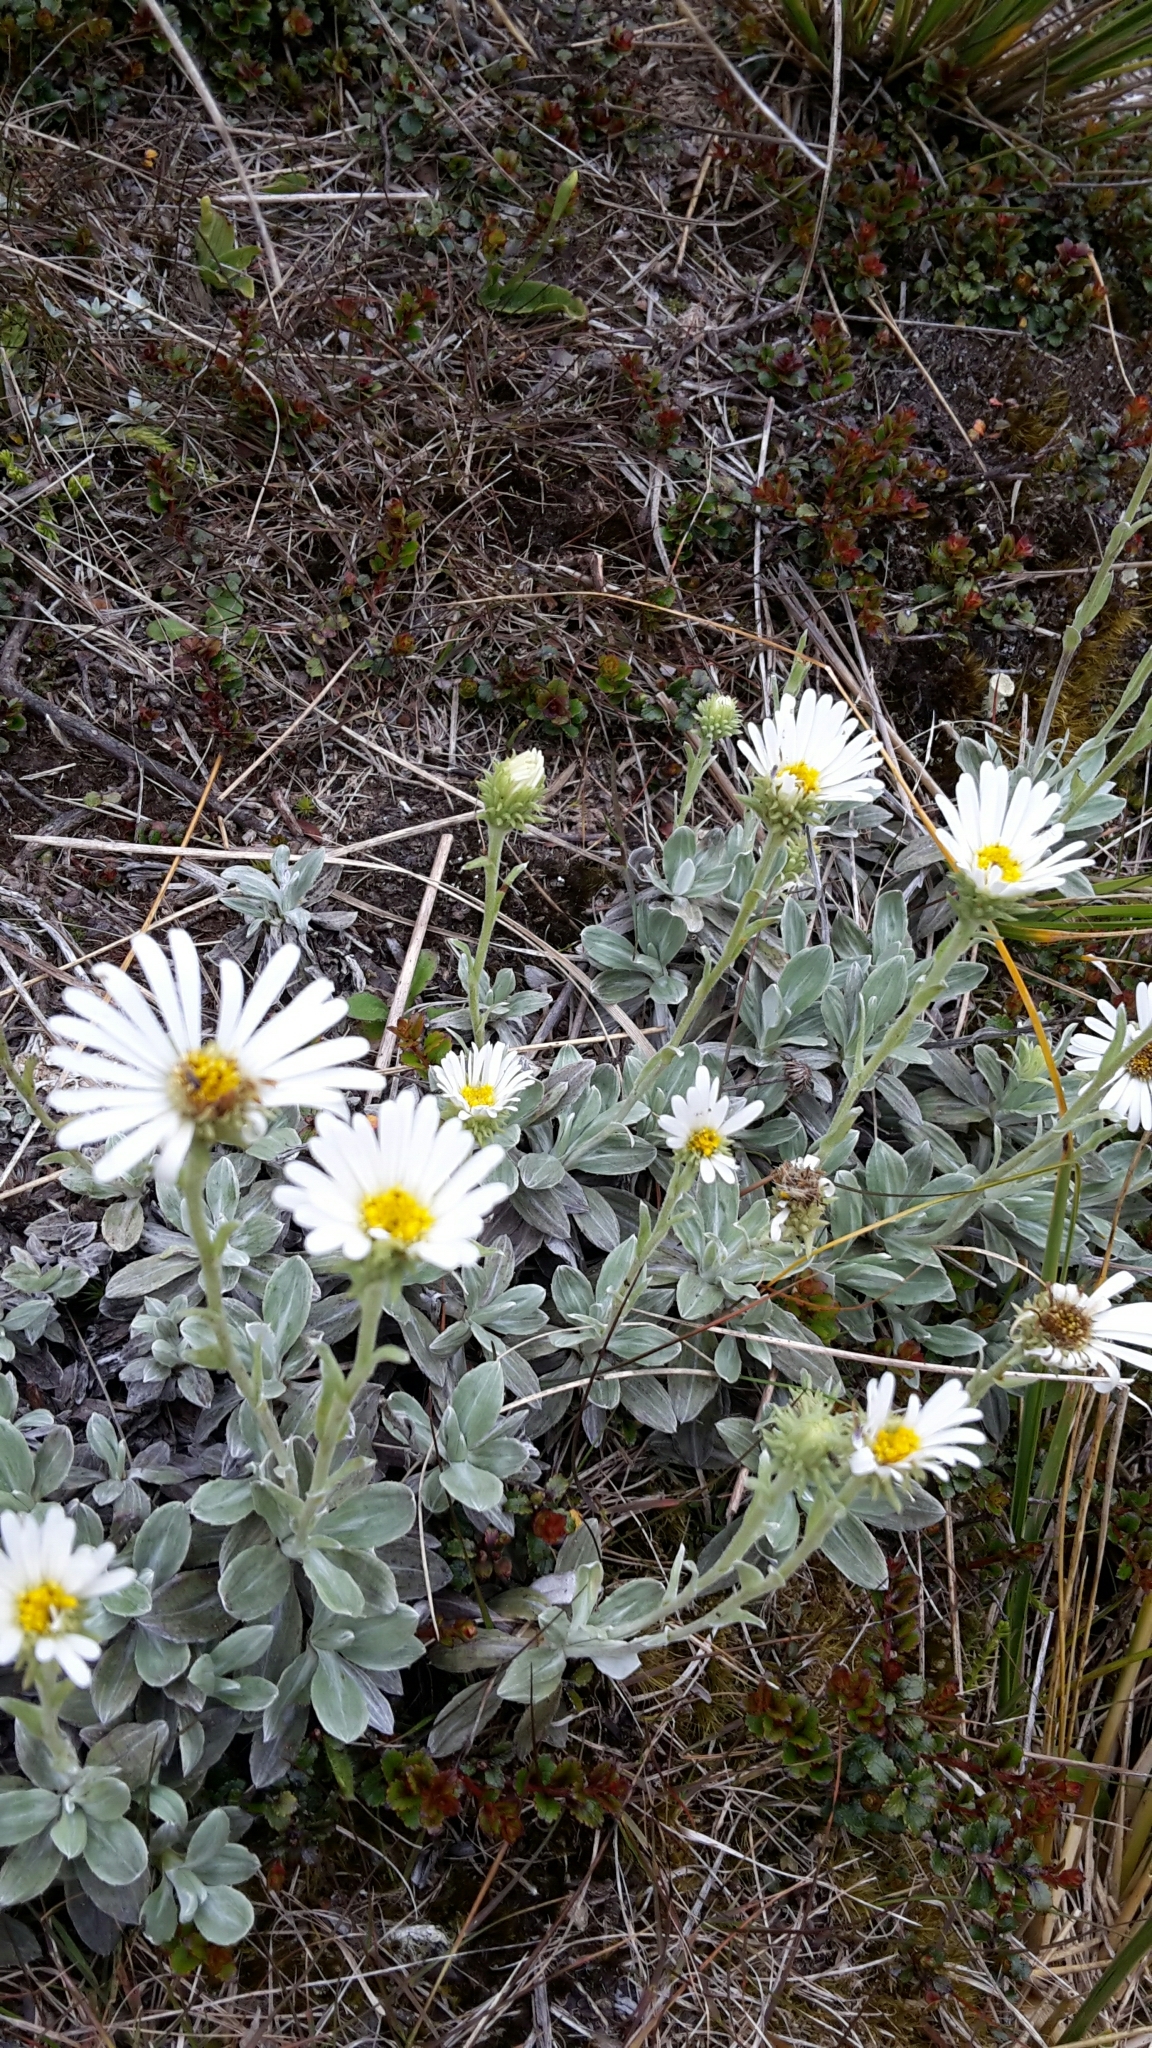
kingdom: Plantae
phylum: Tracheophyta
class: Magnoliopsida
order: Asterales
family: Asteraceae
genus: Celmisia
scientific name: Celmisia incana
